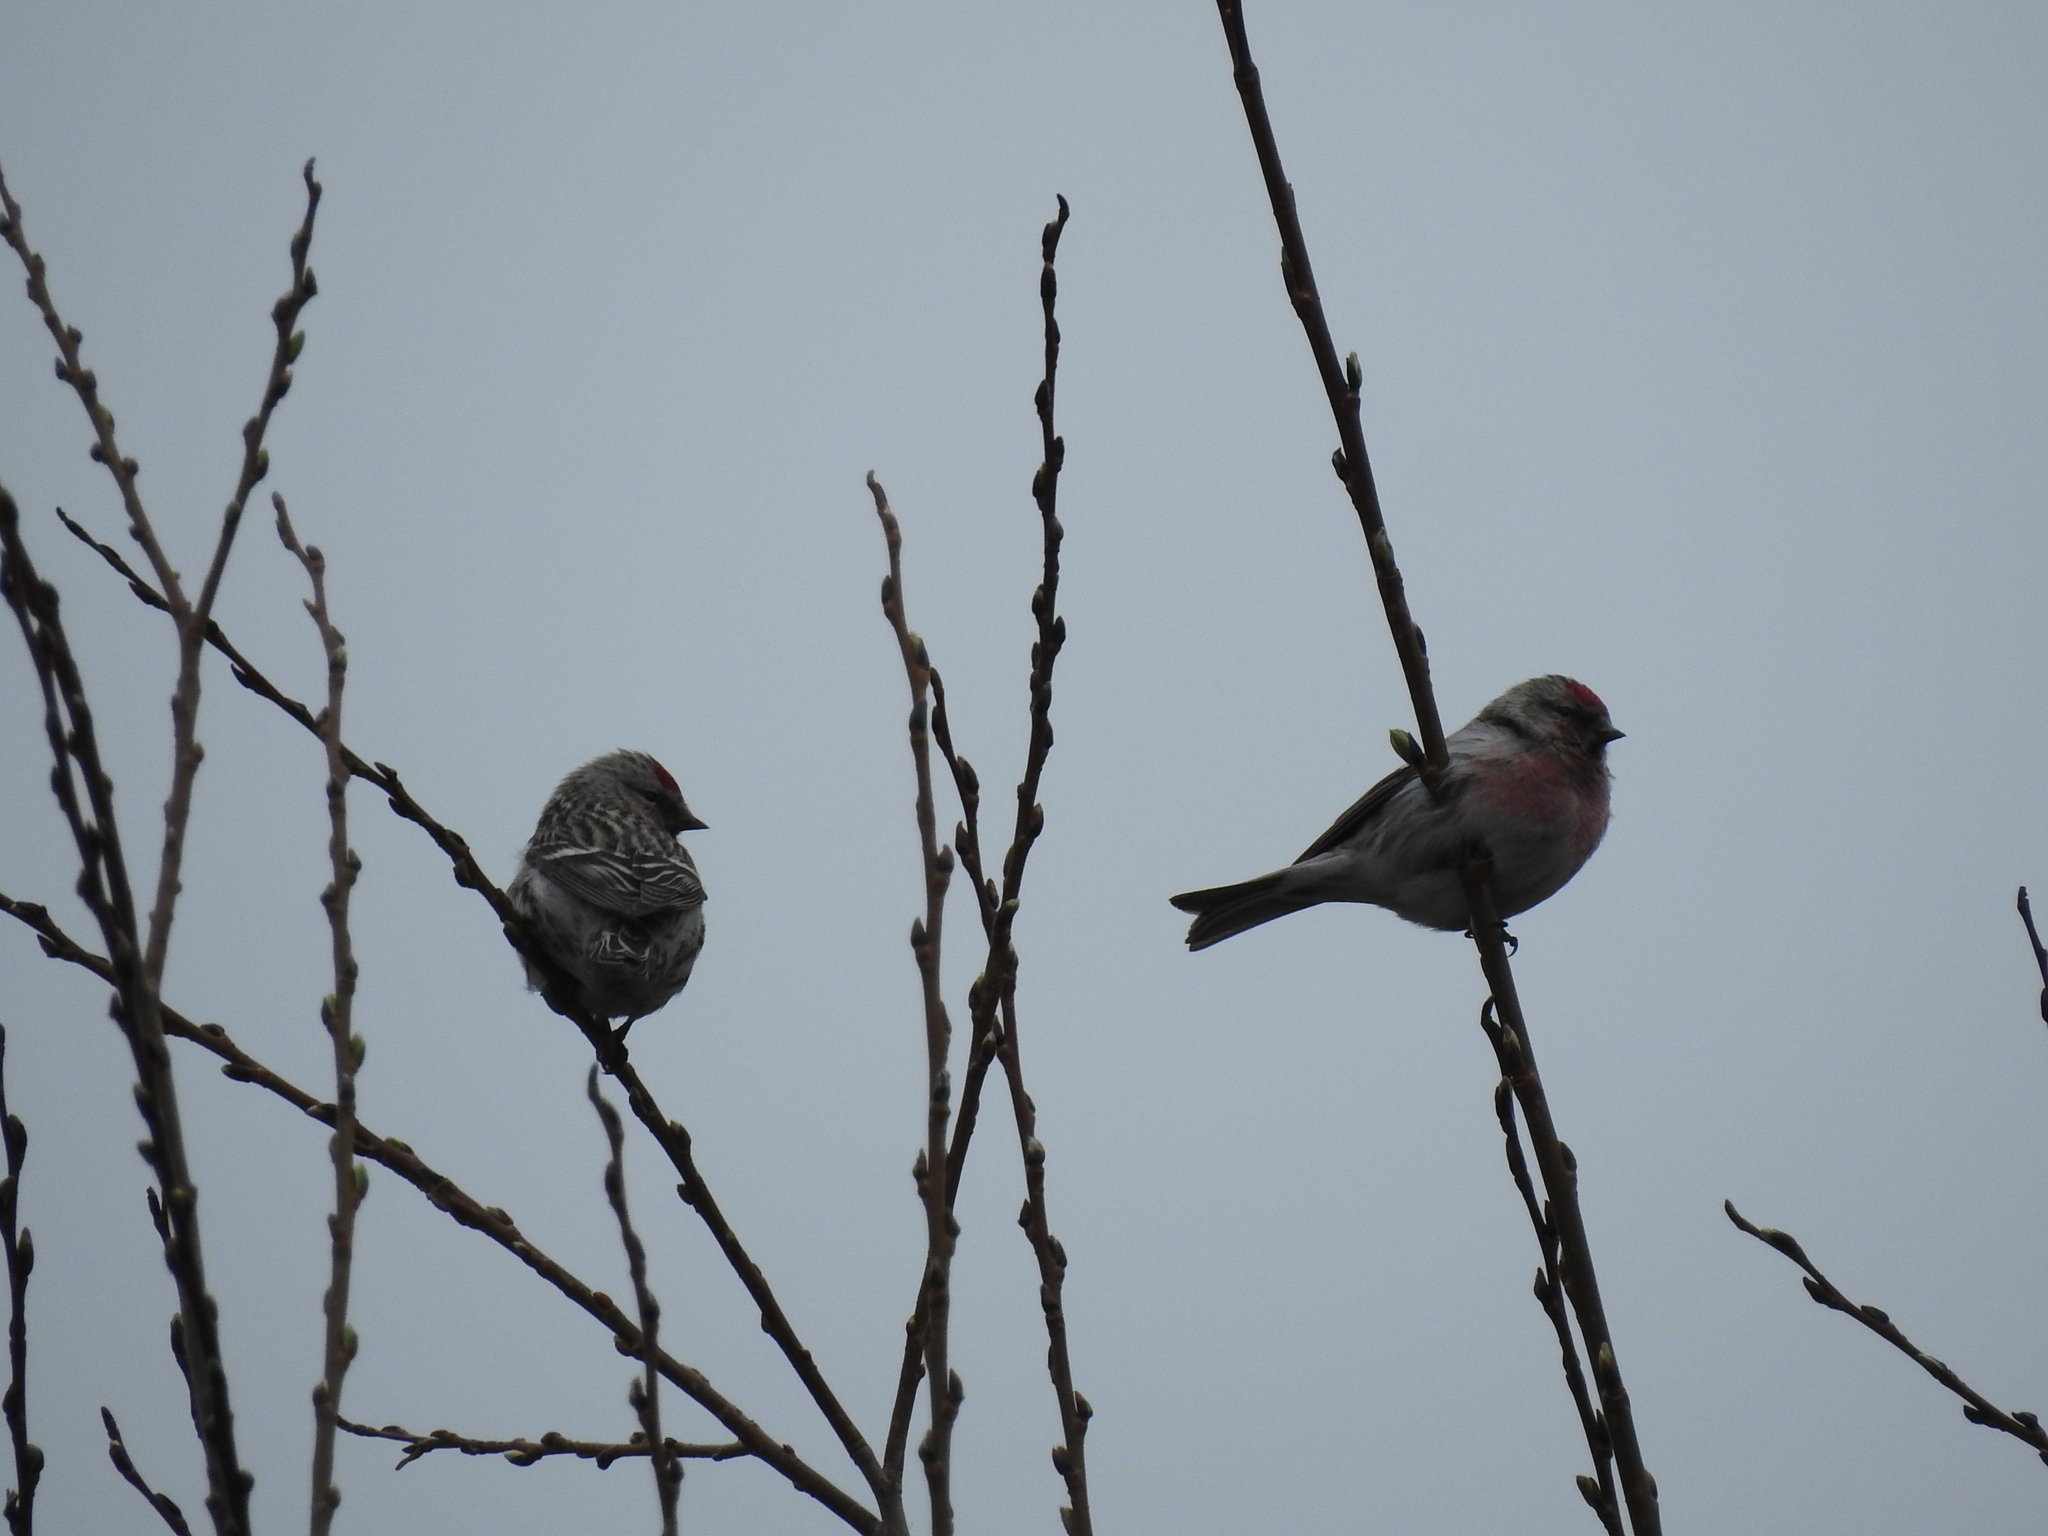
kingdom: Animalia
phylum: Chordata
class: Aves
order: Passeriformes
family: Fringillidae
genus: Acanthis
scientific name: Acanthis flammea
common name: Common redpoll
